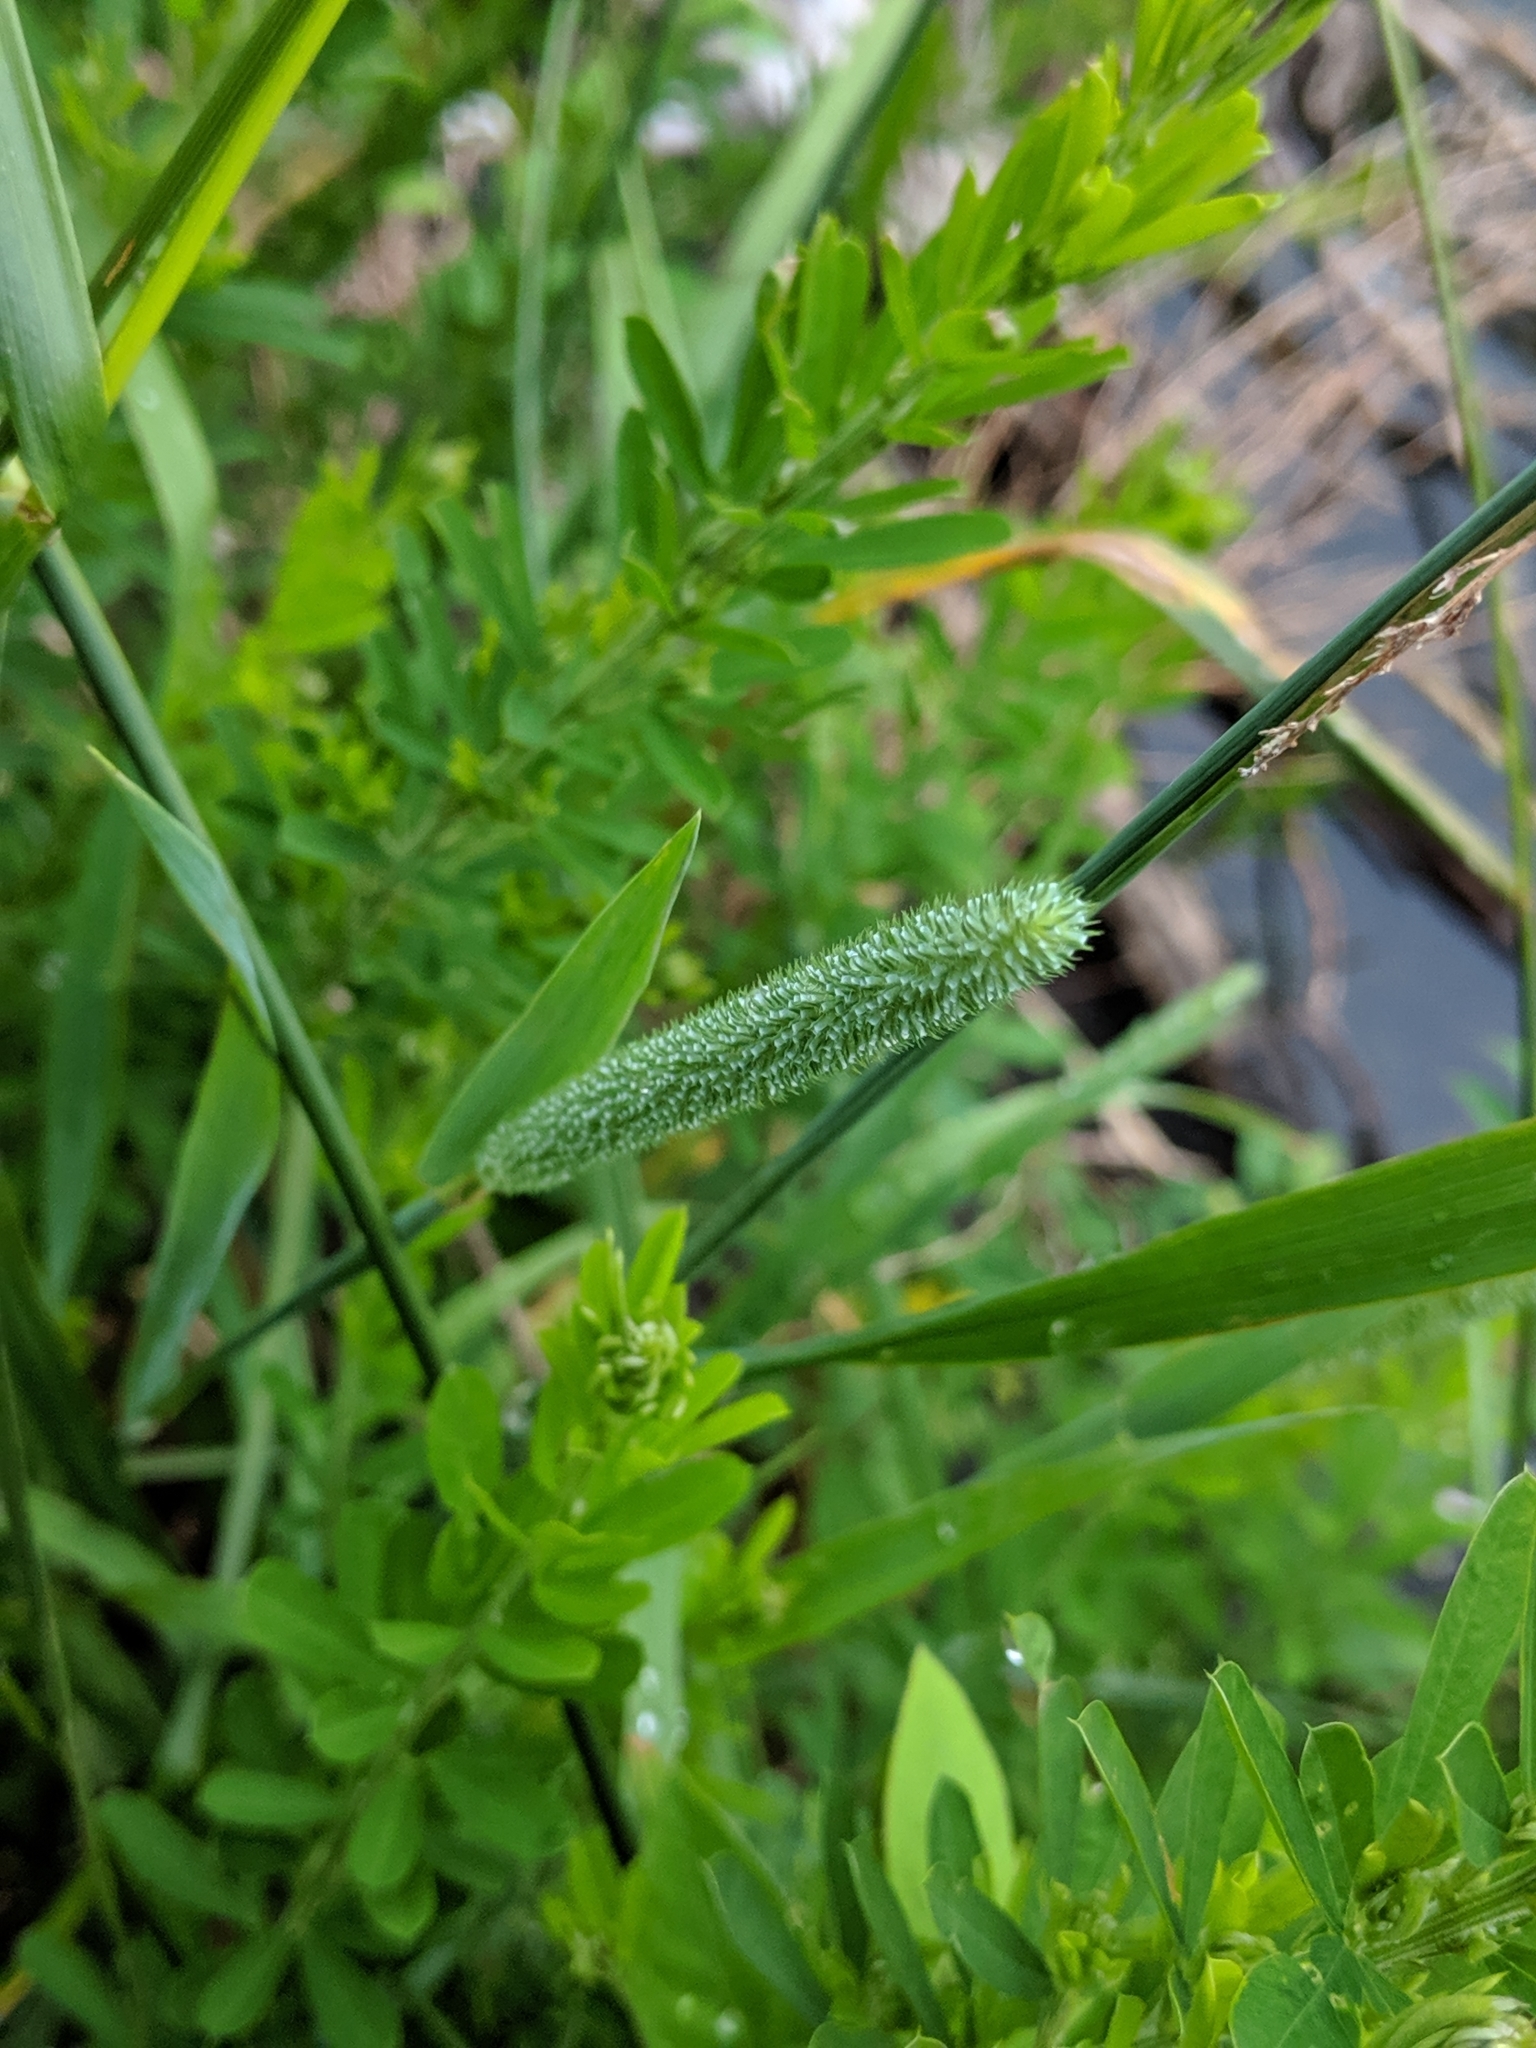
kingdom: Plantae
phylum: Tracheophyta
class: Liliopsida
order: Poales
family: Poaceae
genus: Phleum
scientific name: Phleum pratense
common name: Timothy grass
